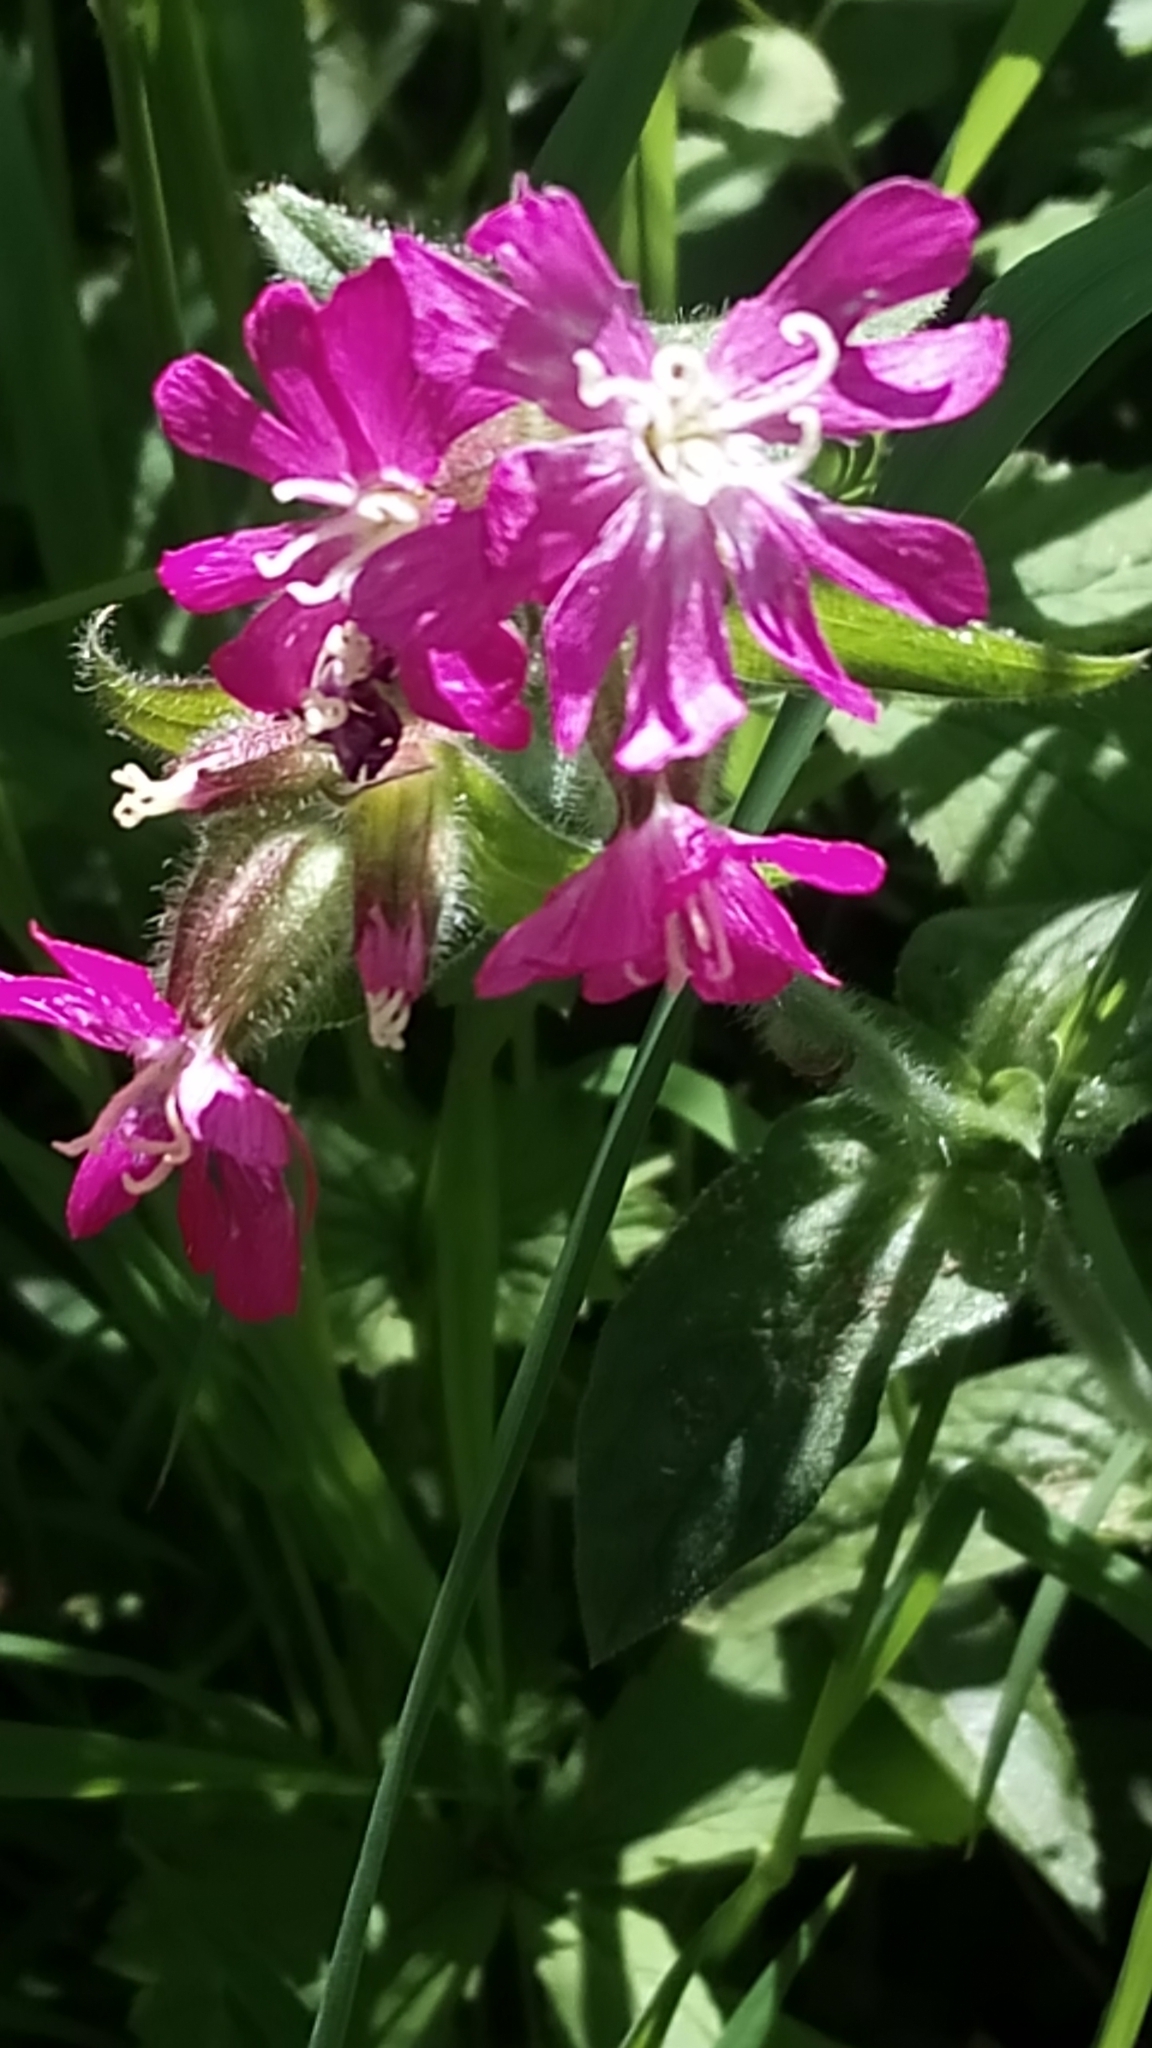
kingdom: Plantae
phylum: Tracheophyta
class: Magnoliopsida
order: Caryophyllales
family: Caryophyllaceae
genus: Silene
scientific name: Silene dioica
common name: Red campion
